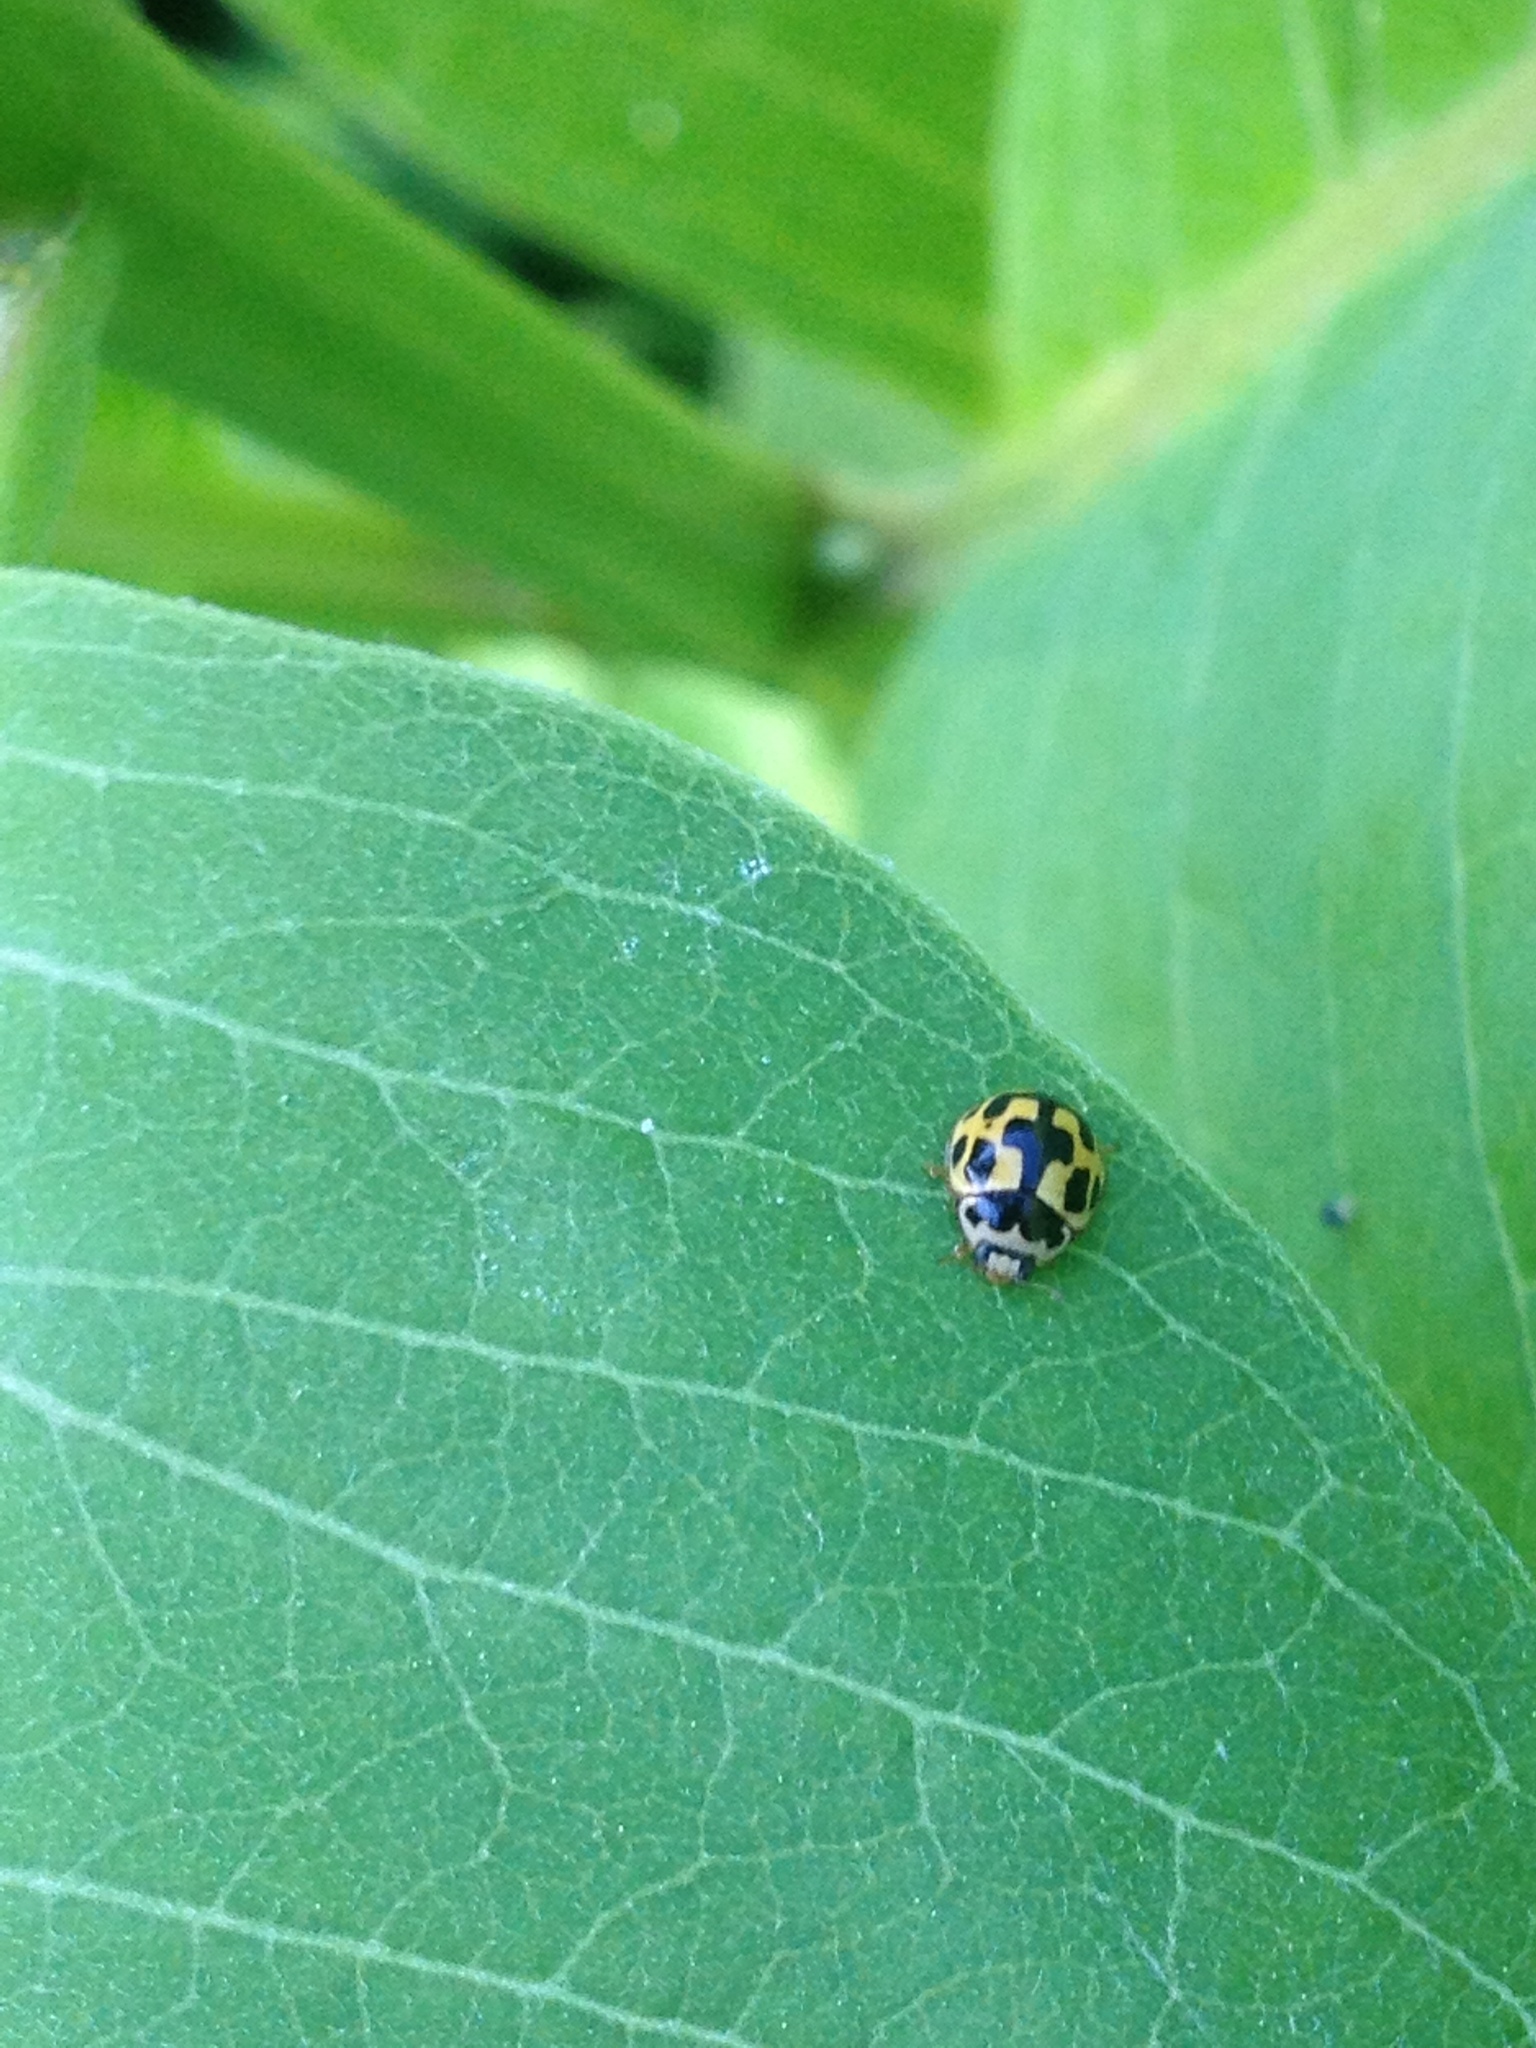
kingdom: Animalia
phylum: Arthropoda
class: Insecta
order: Coleoptera
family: Coccinellidae
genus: Propylaea
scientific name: Propylaea quatuordecimpunctata
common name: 14-spotted ladybird beetle
